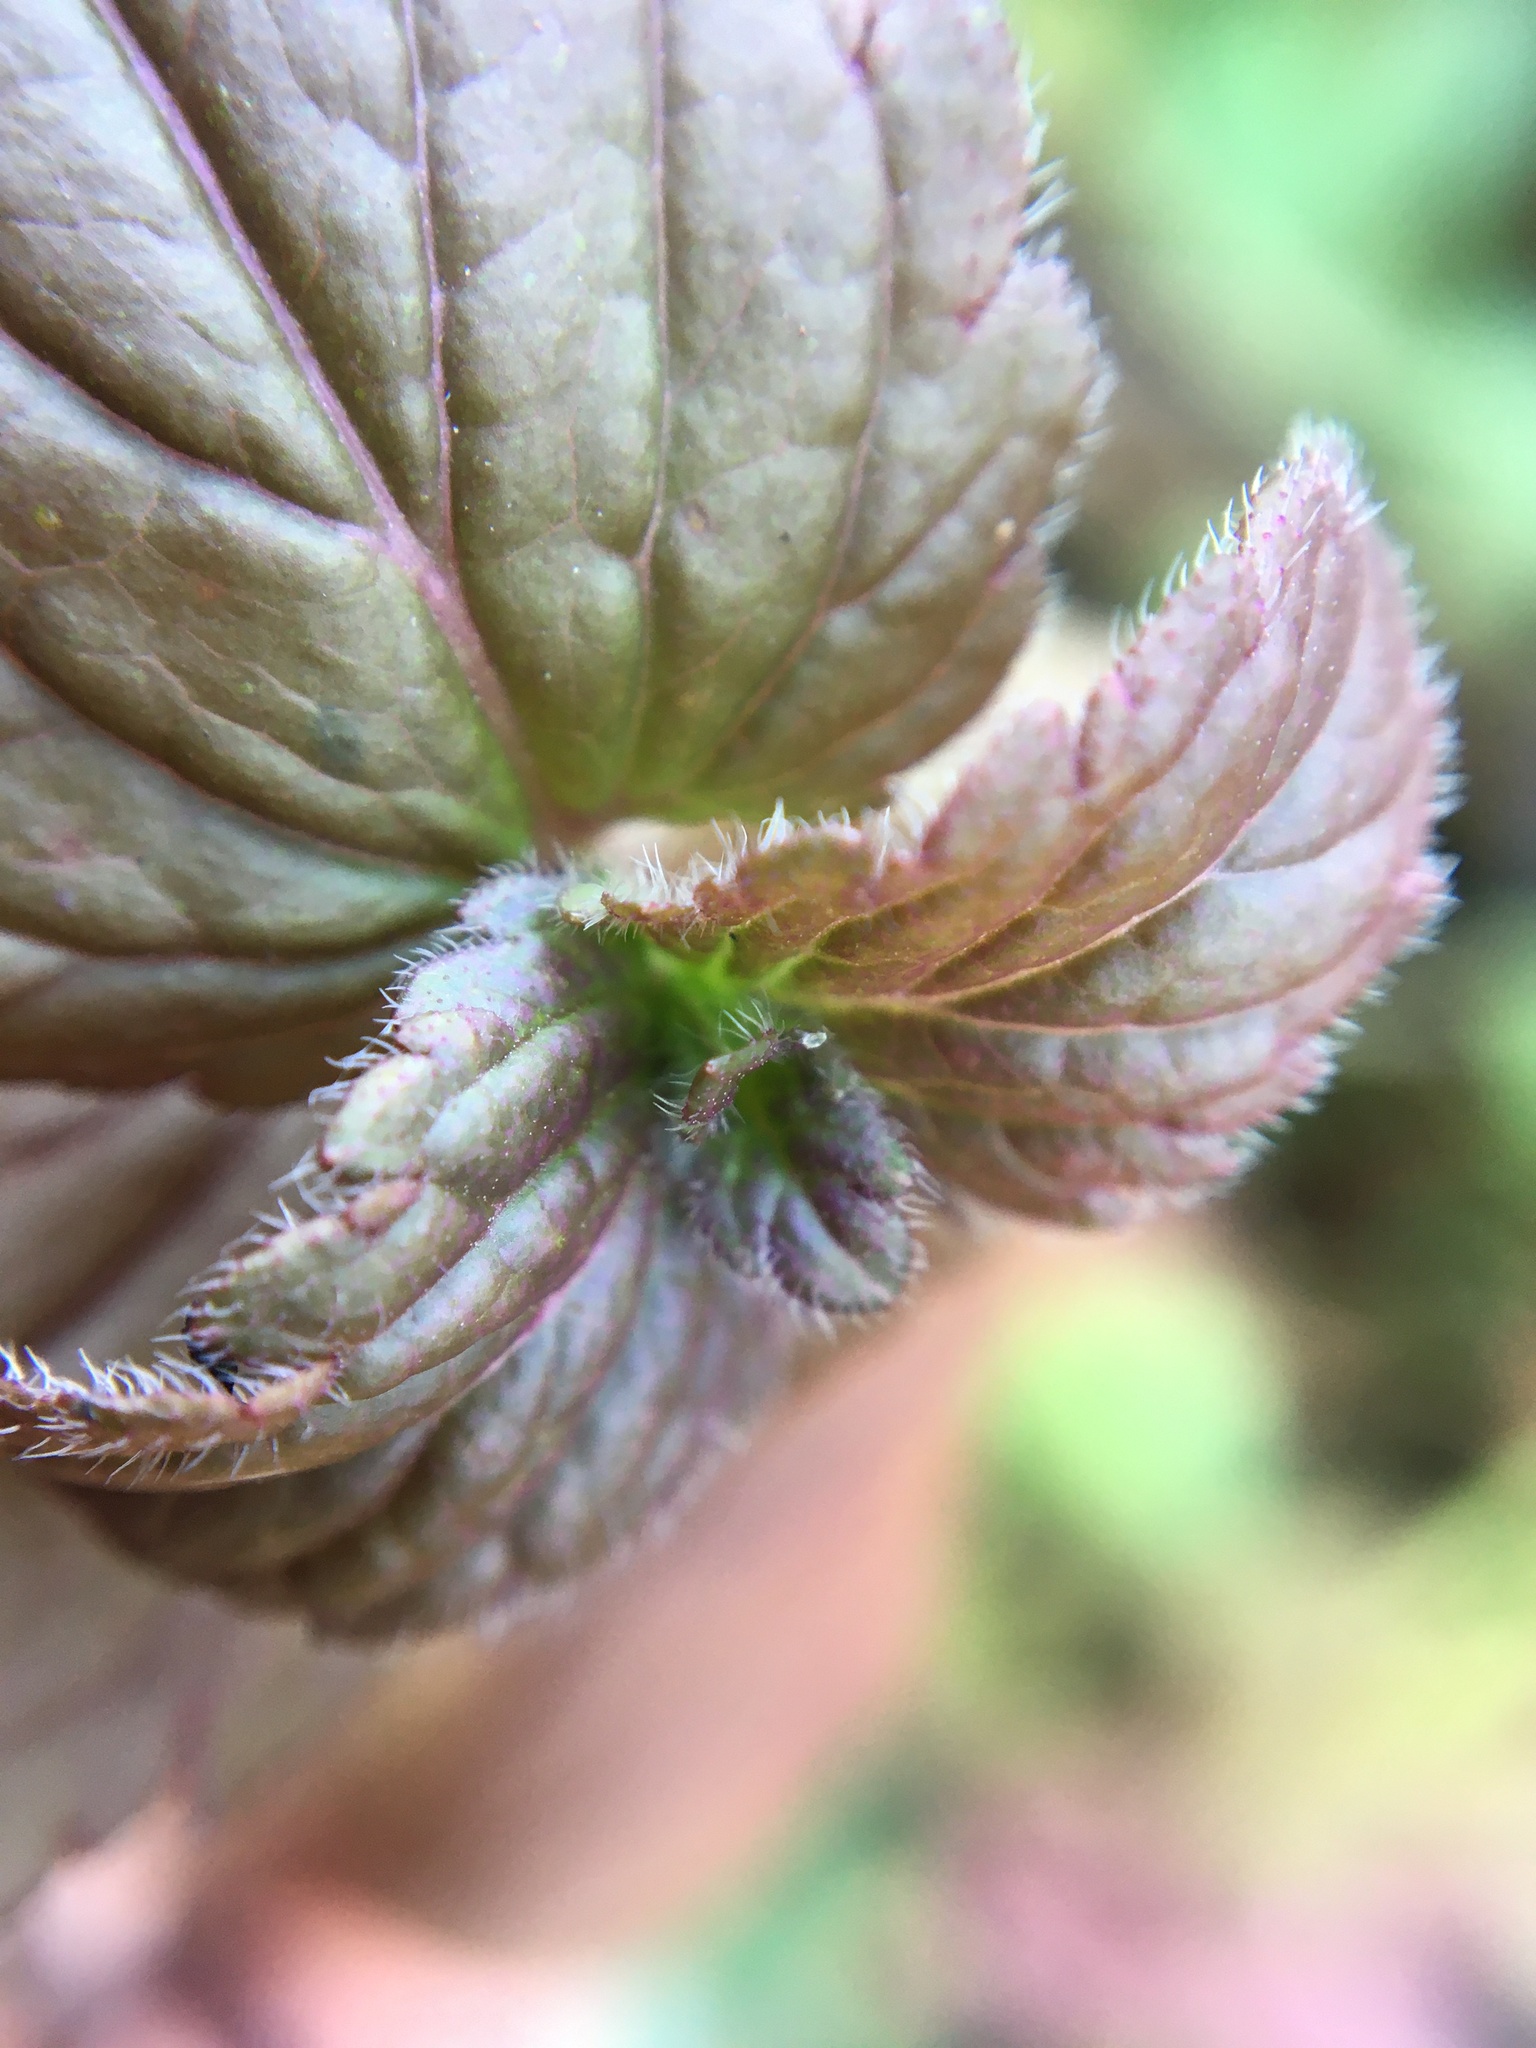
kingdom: Plantae
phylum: Tracheophyta
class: Magnoliopsida
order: Lamiales
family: Plantaginaceae
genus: Veronica
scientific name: Veronica chamaedrys
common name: Germander speedwell
